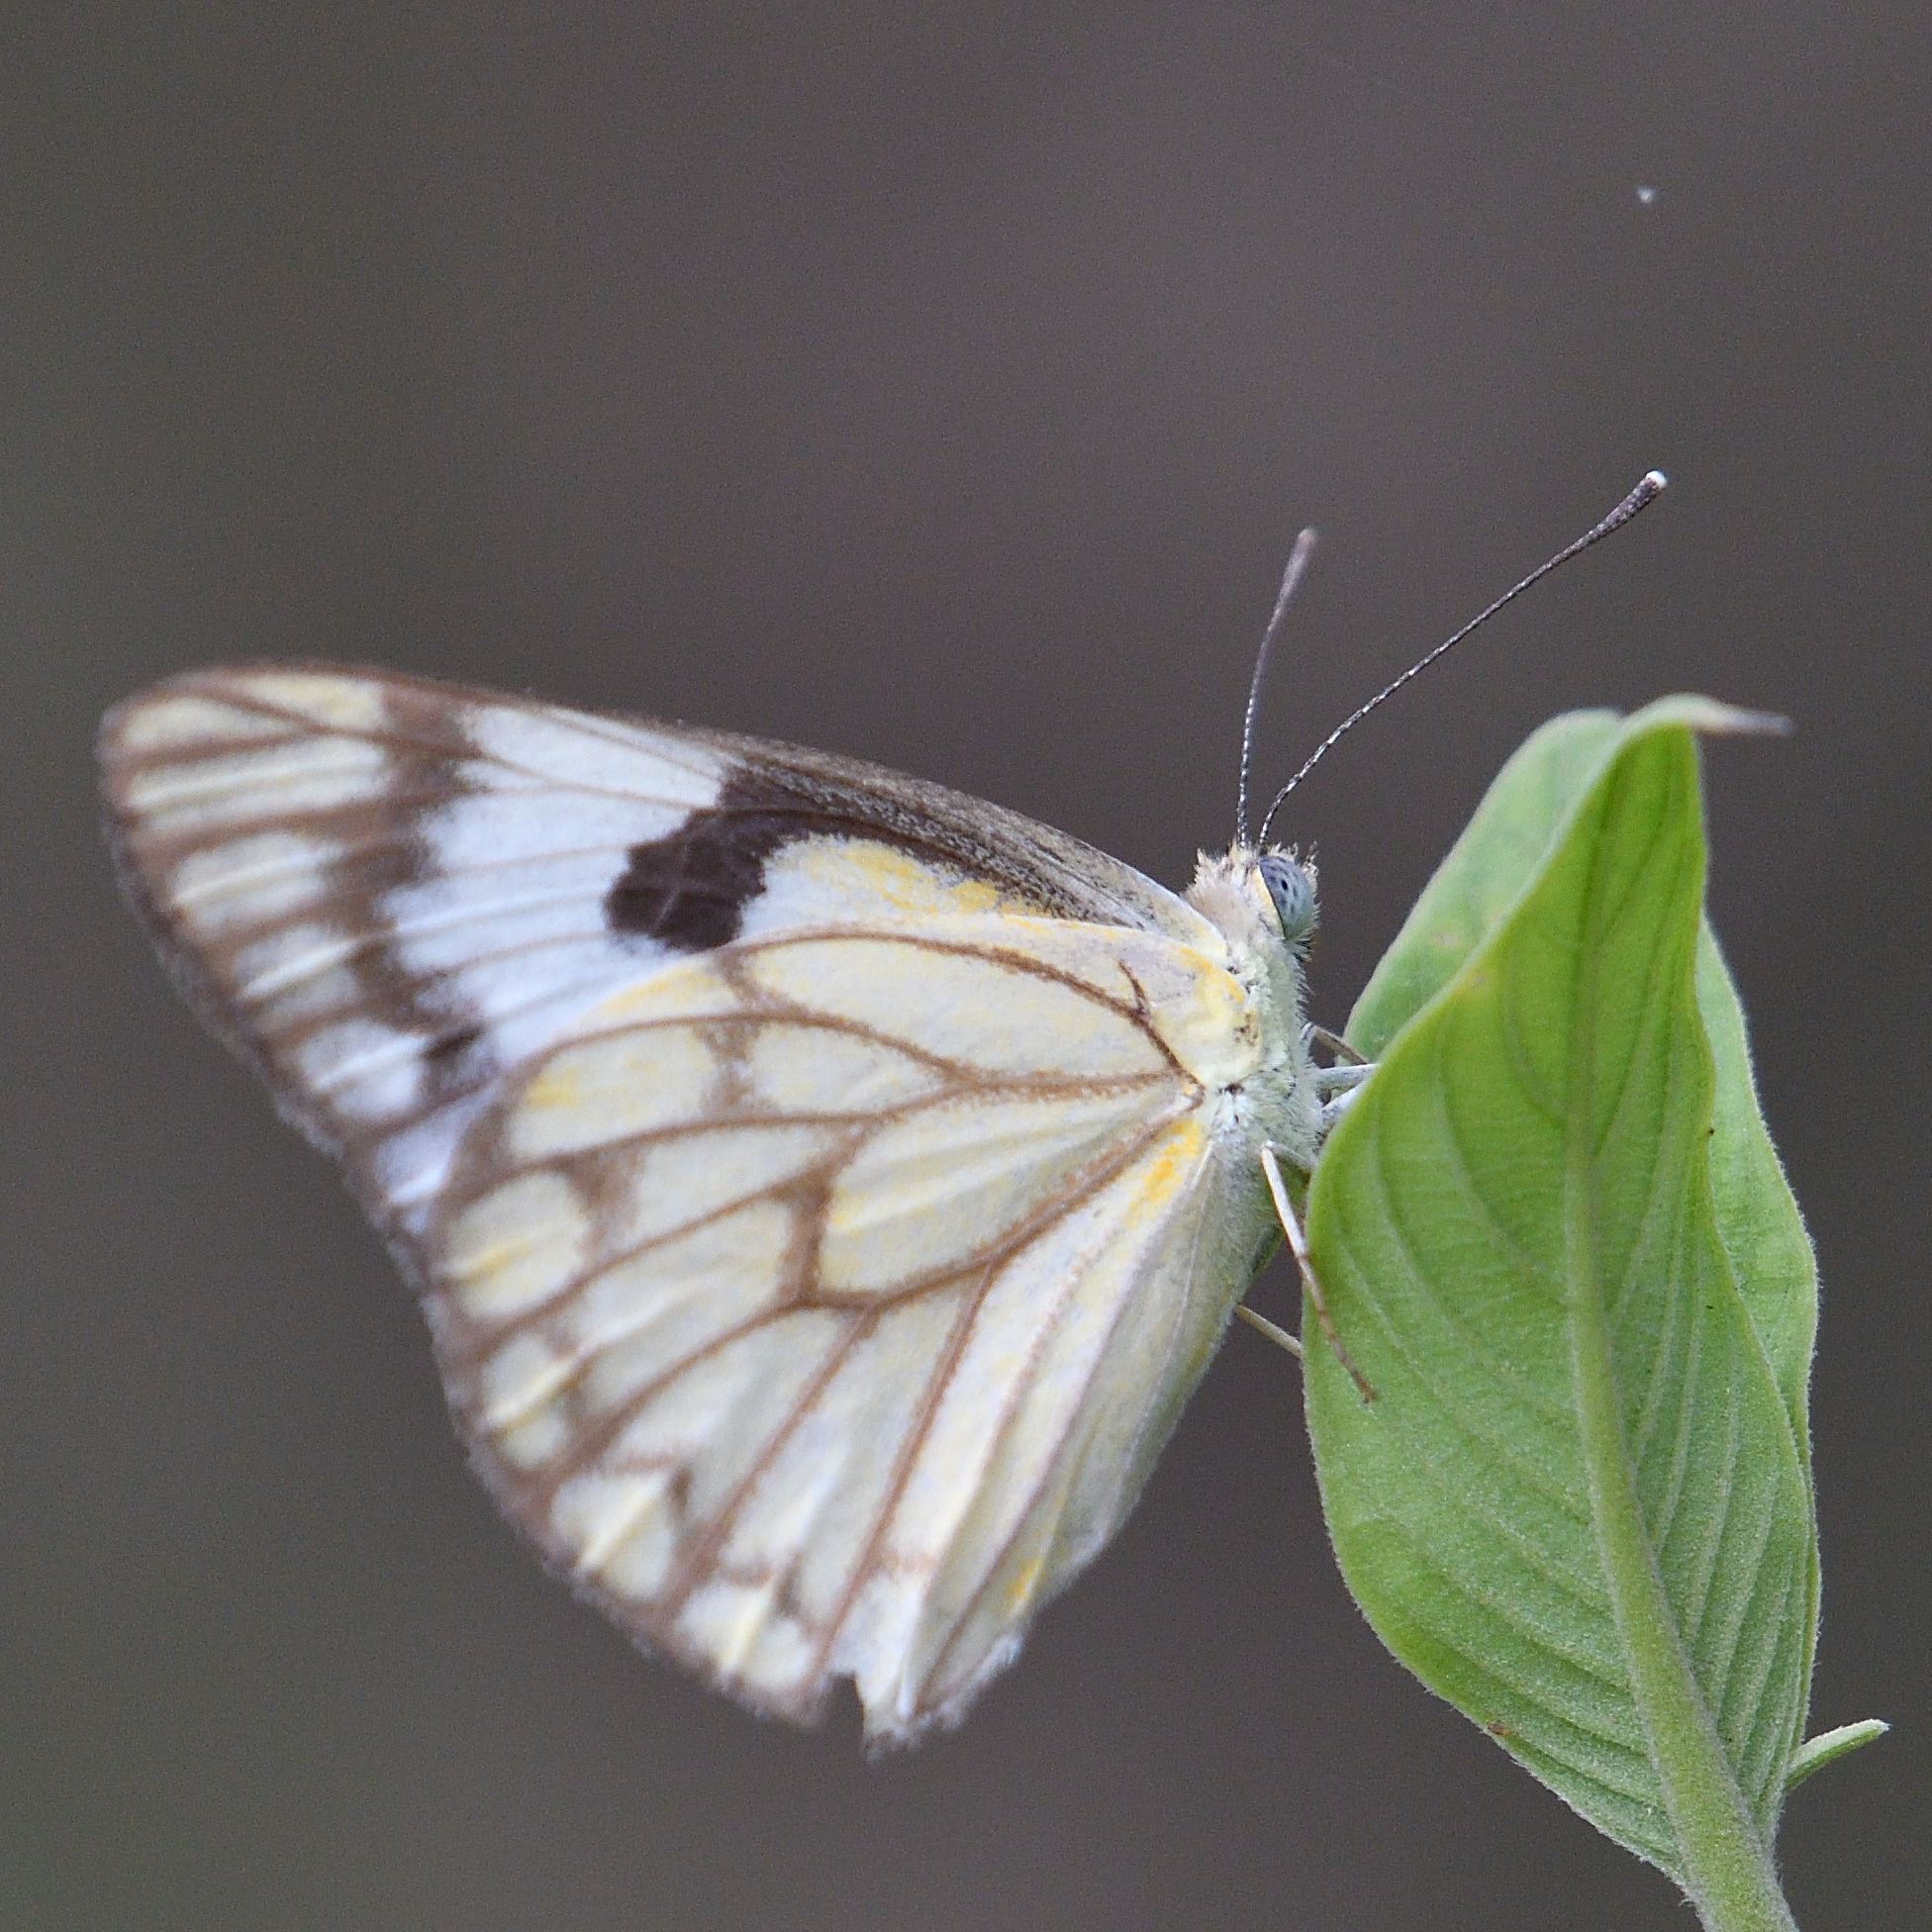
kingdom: Animalia
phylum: Arthropoda
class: Insecta
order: Lepidoptera
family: Pieridae
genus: Belenois
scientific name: Belenois aurota
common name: Brown-veined white
